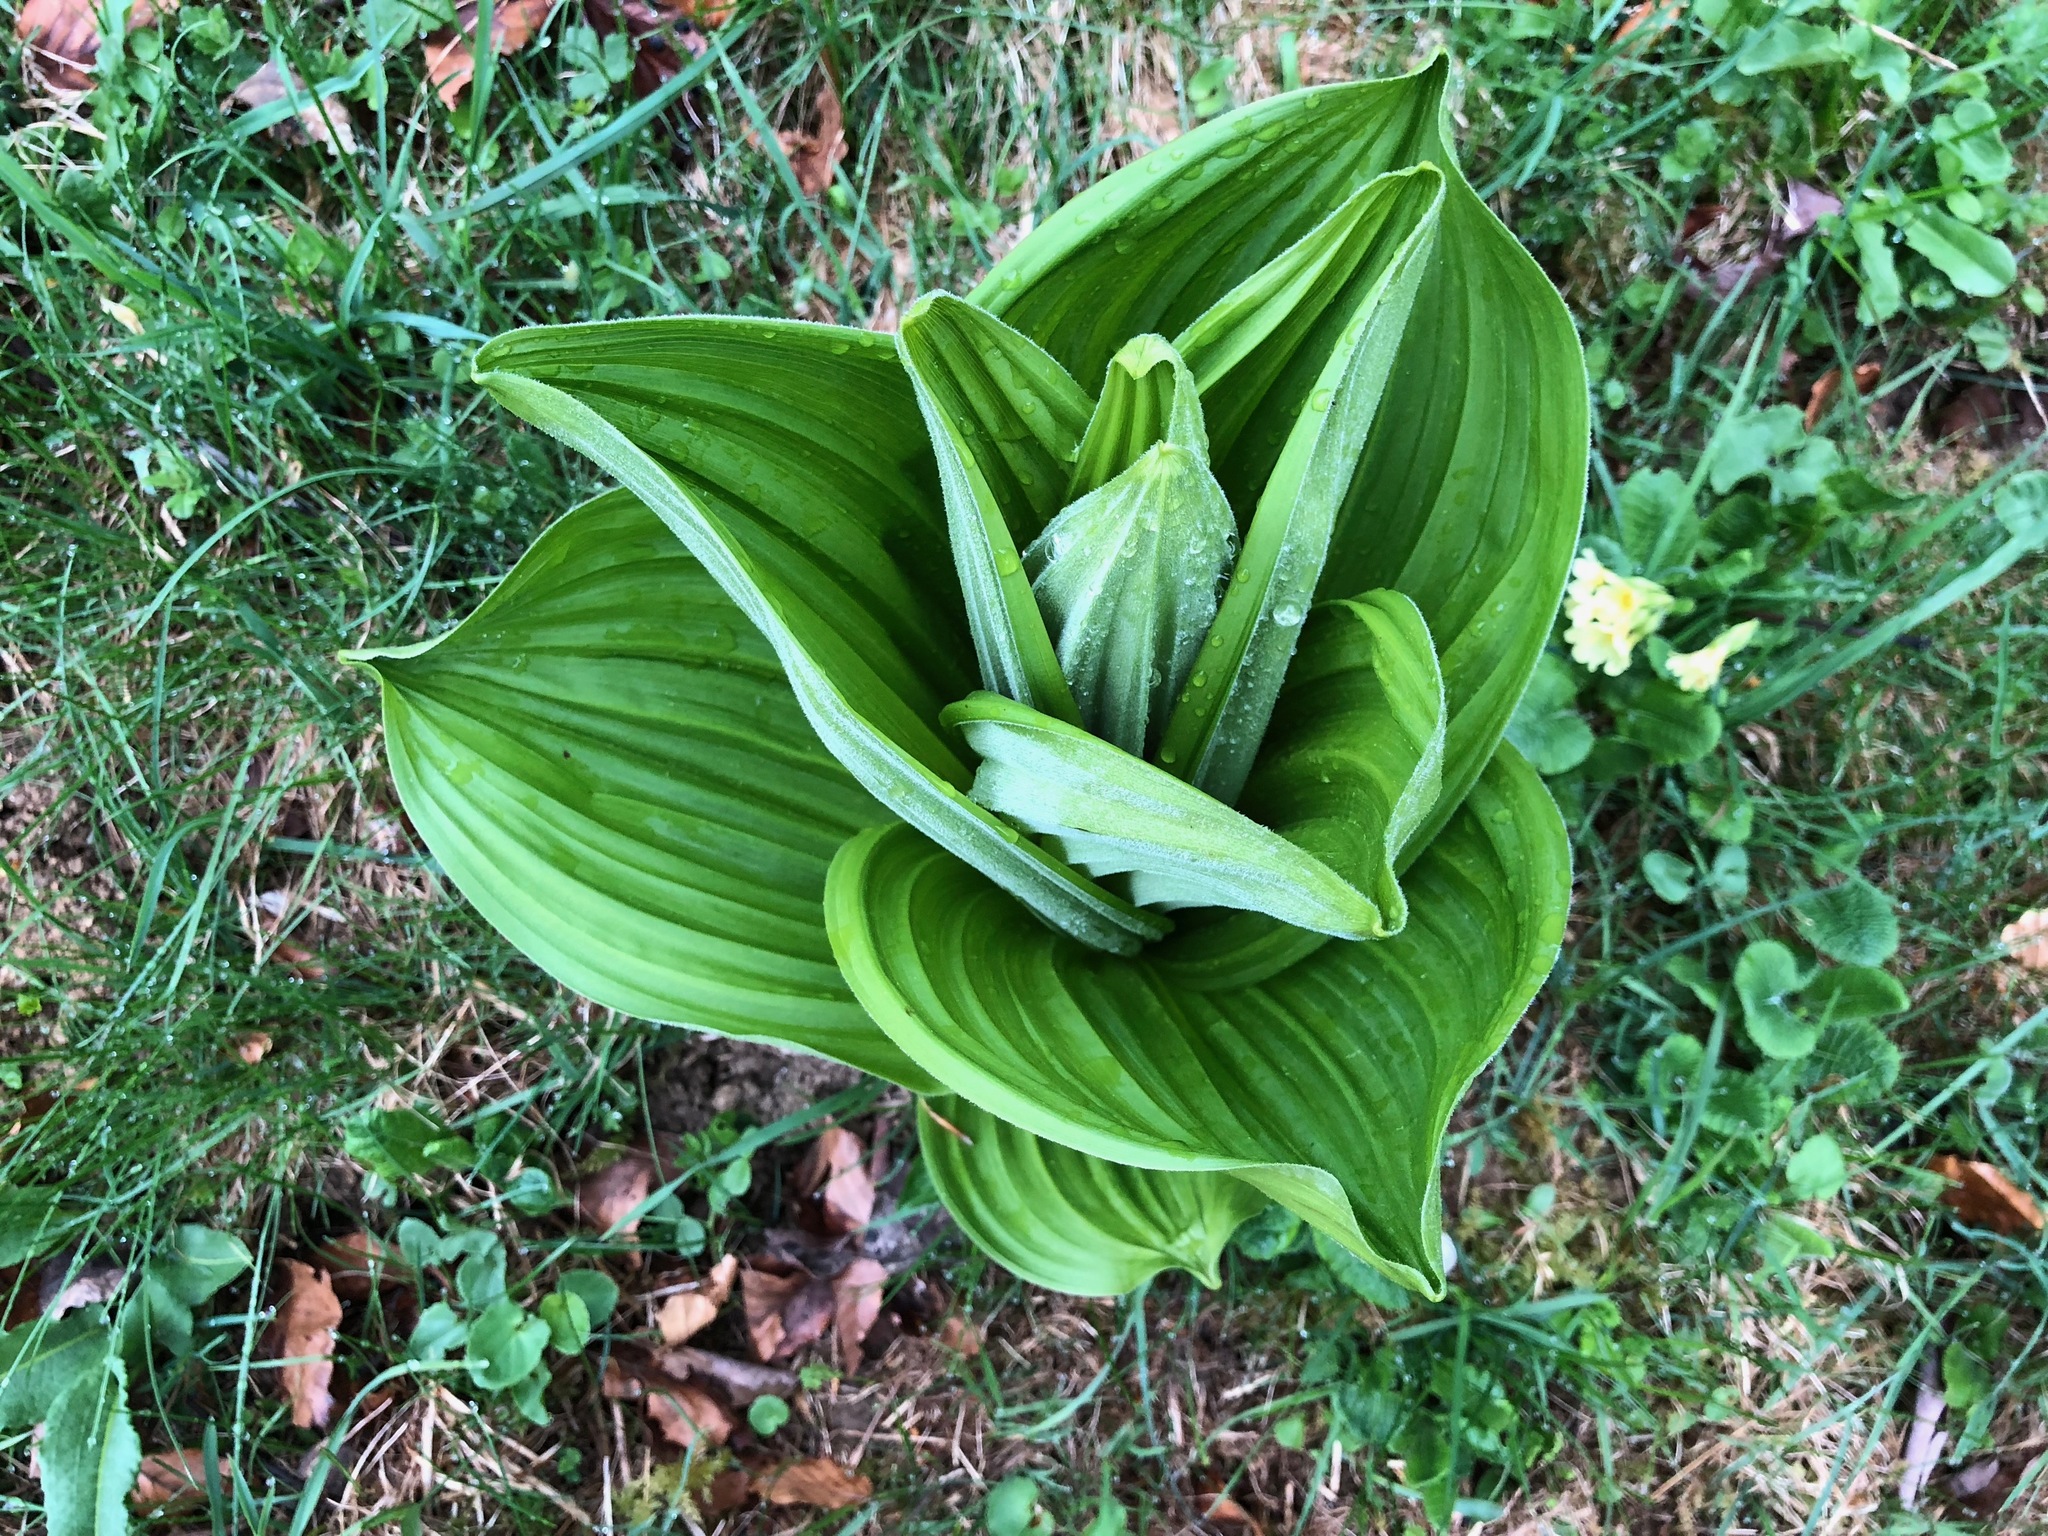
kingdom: Plantae
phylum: Tracheophyta
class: Liliopsida
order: Liliales
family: Melanthiaceae
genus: Veratrum
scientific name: Veratrum album
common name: White veratrum
